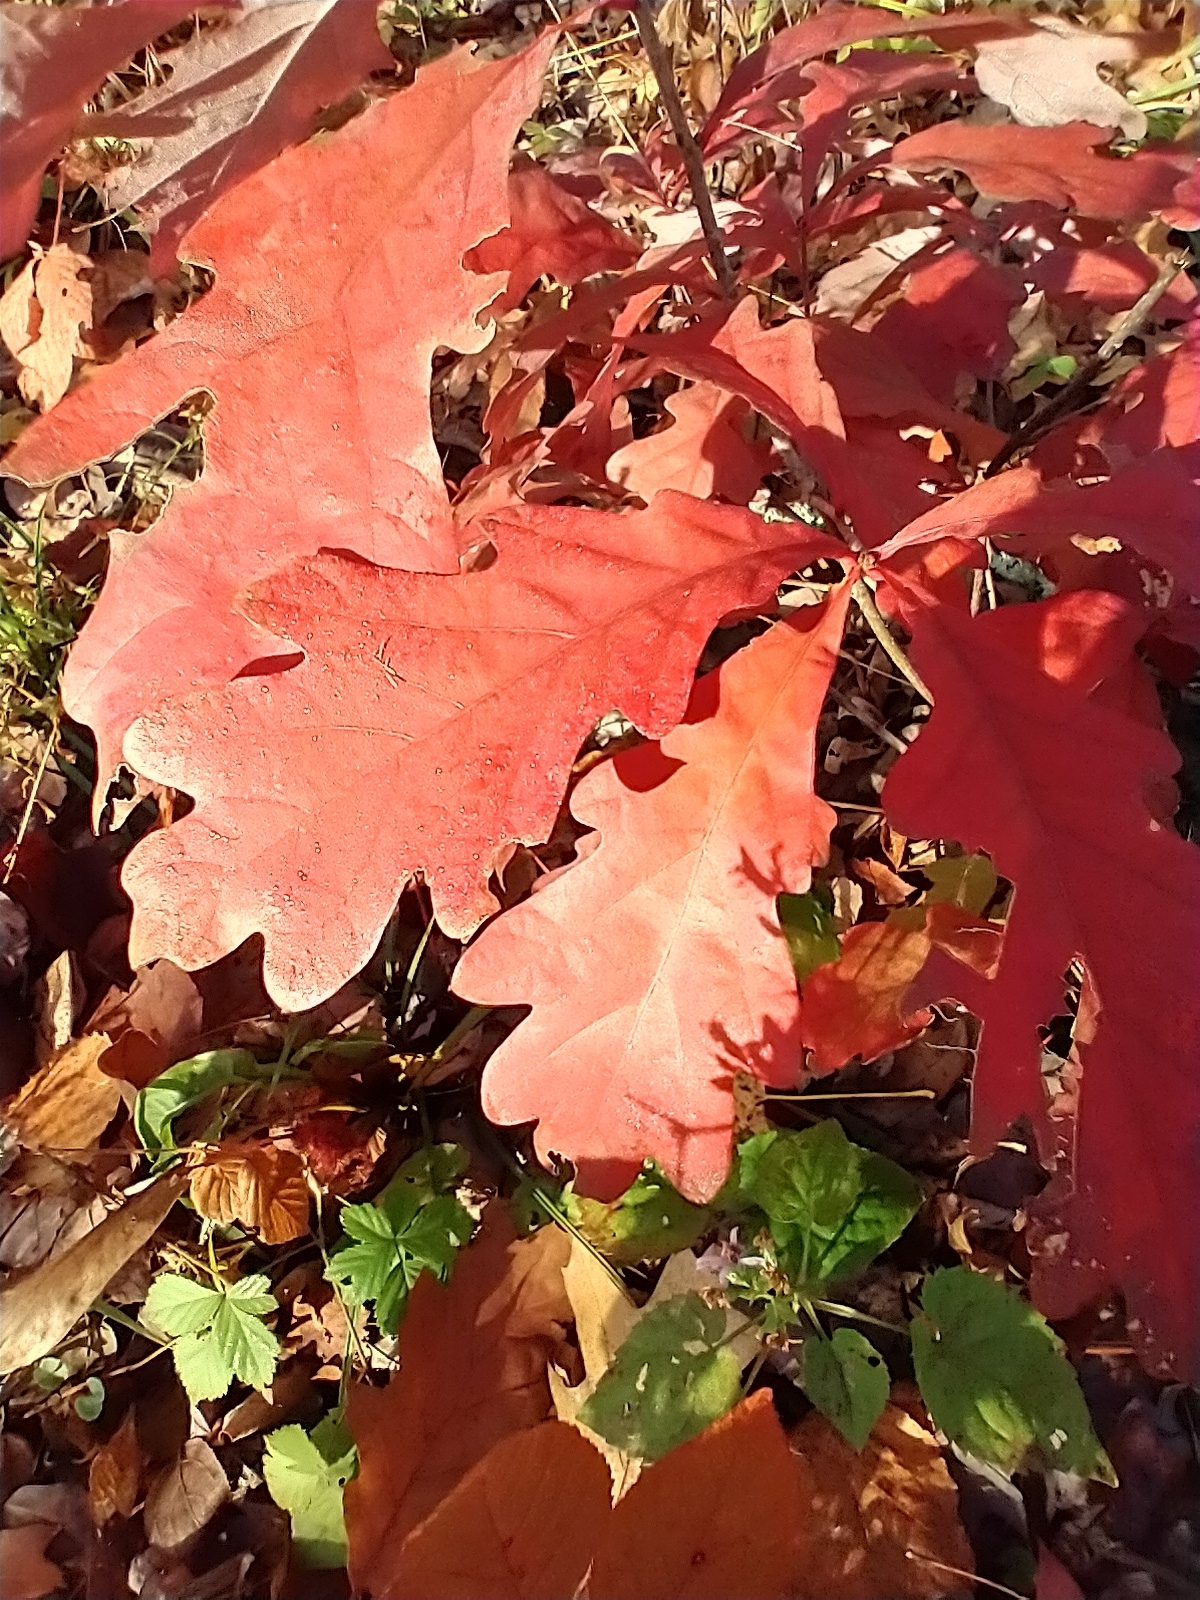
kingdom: Plantae
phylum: Tracheophyta
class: Magnoliopsida
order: Fagales
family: Fagaceae
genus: Quercus
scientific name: Quercus alba
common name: White oak
